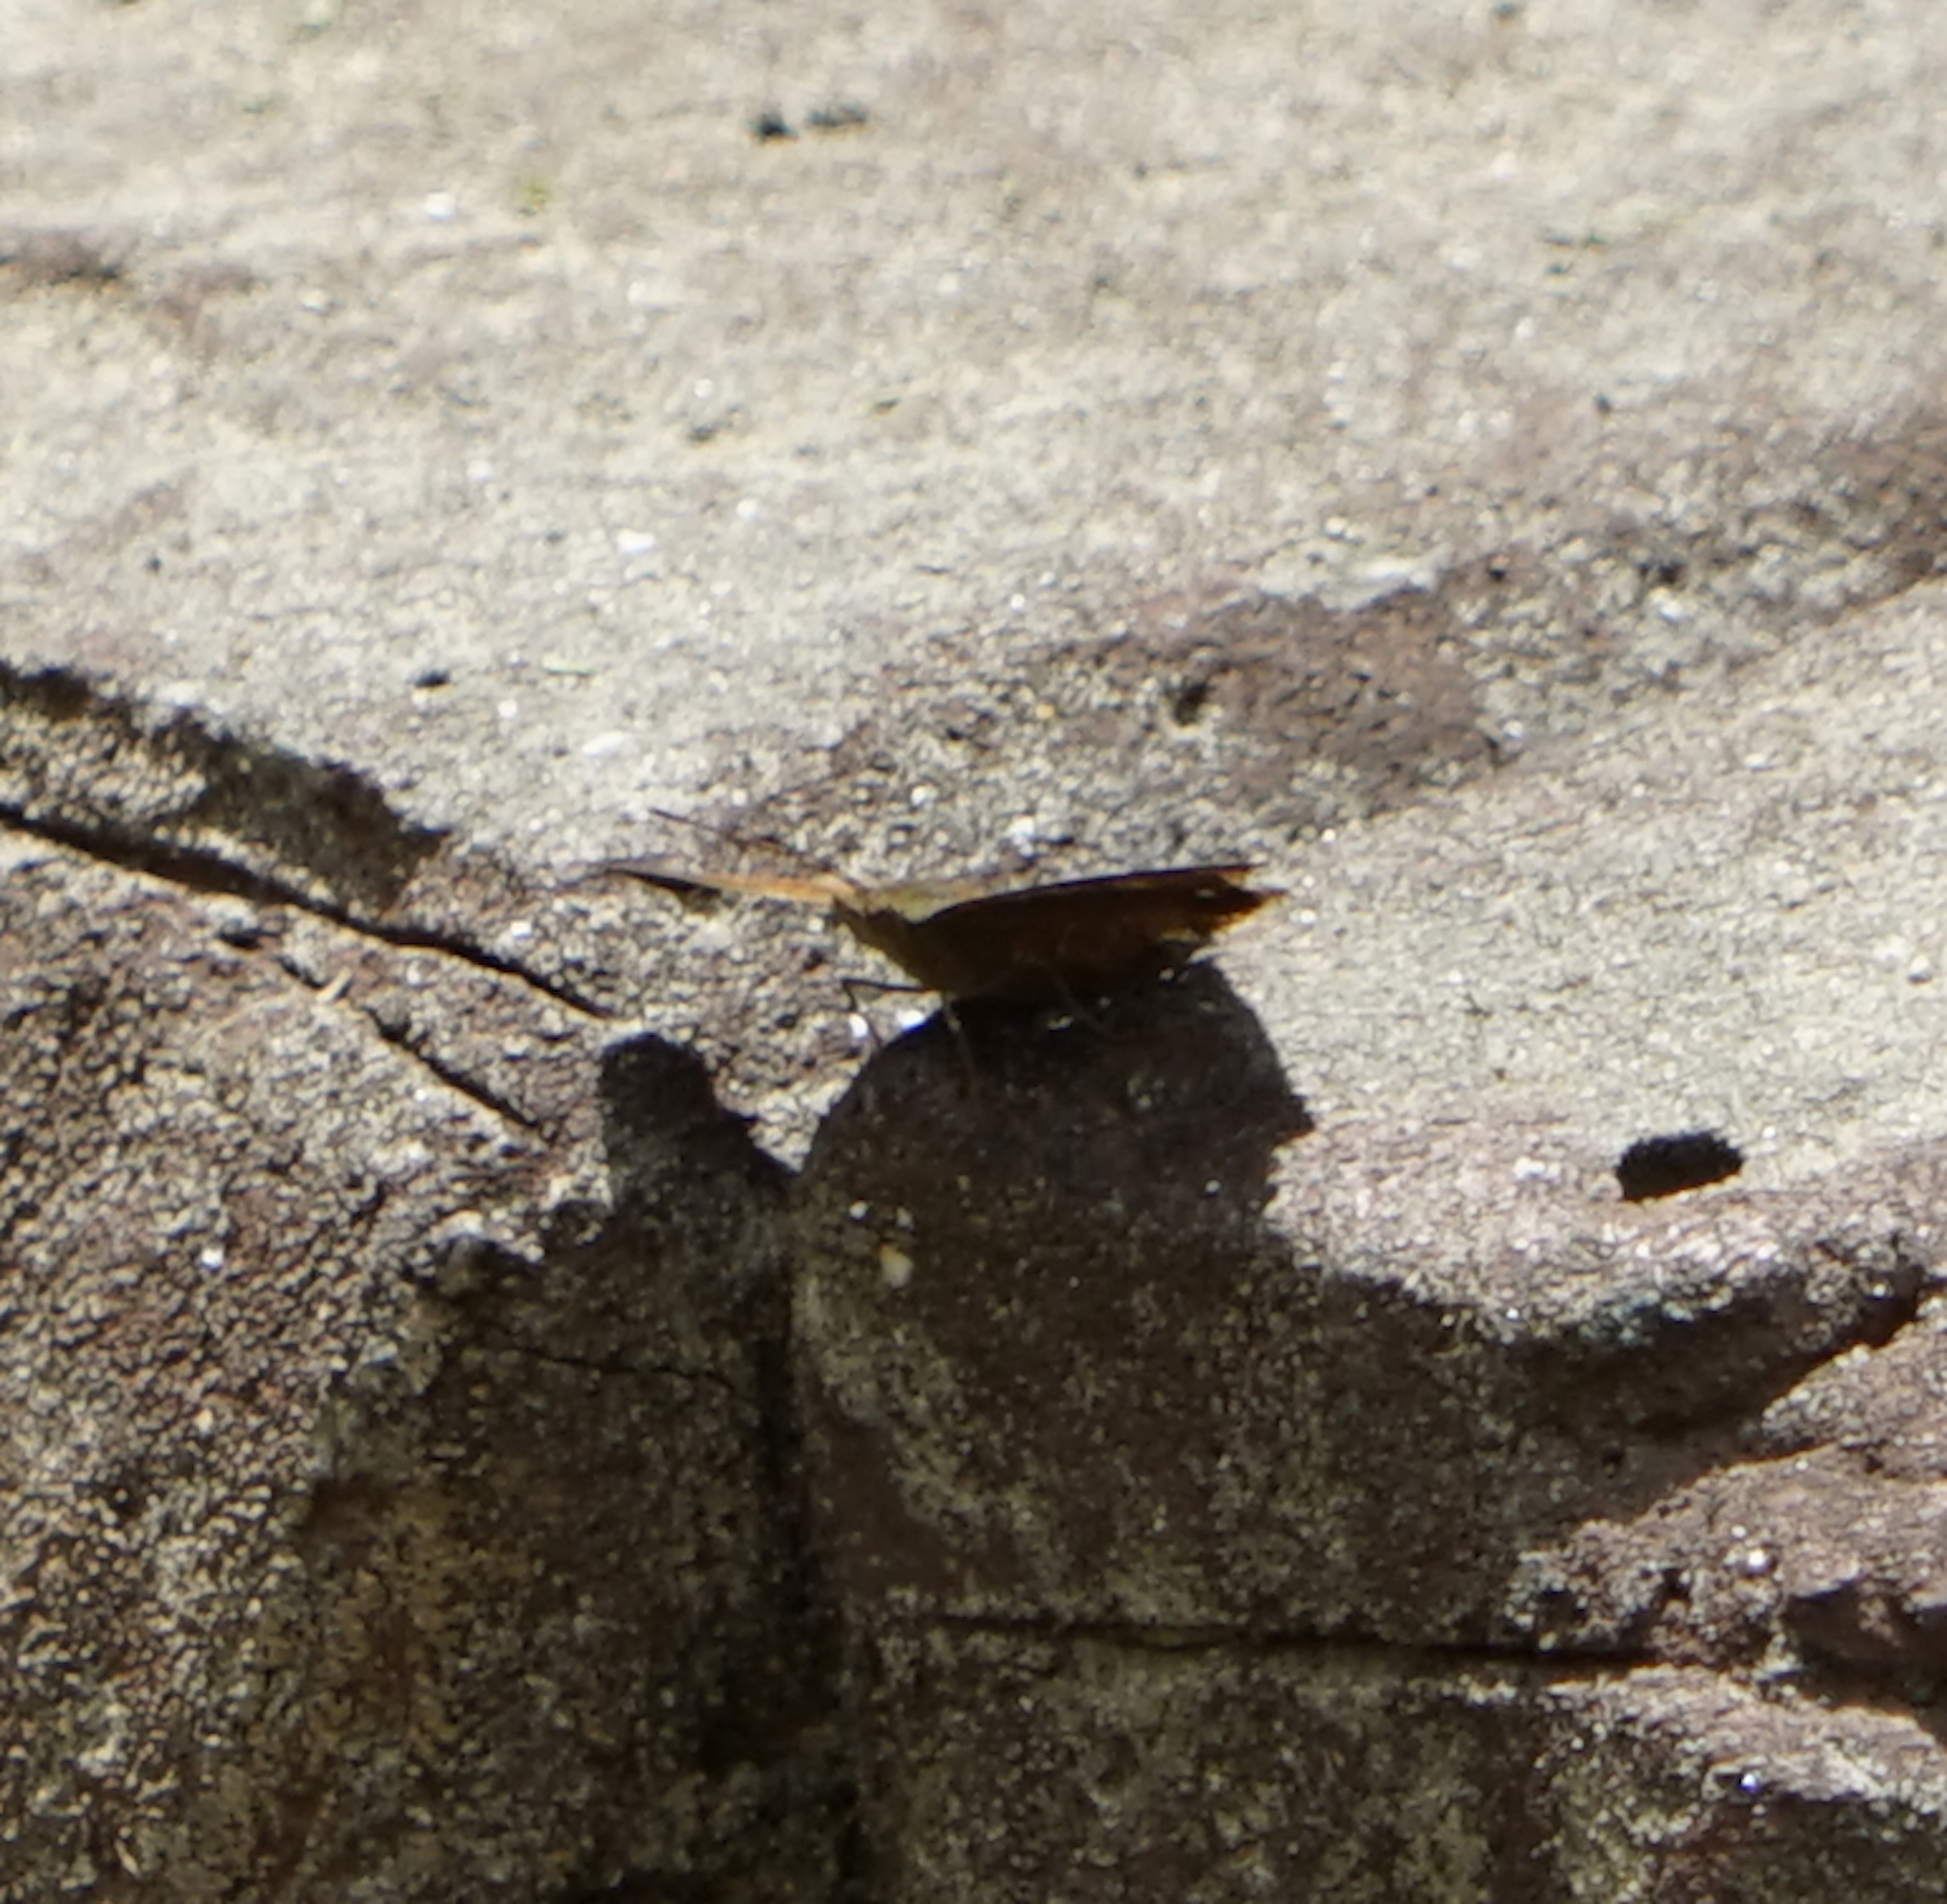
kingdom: Animalia
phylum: Arthropoda
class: Insecta
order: Lepidoptera
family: Nymphalidae
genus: Junonia
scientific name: Junonia hedonia
